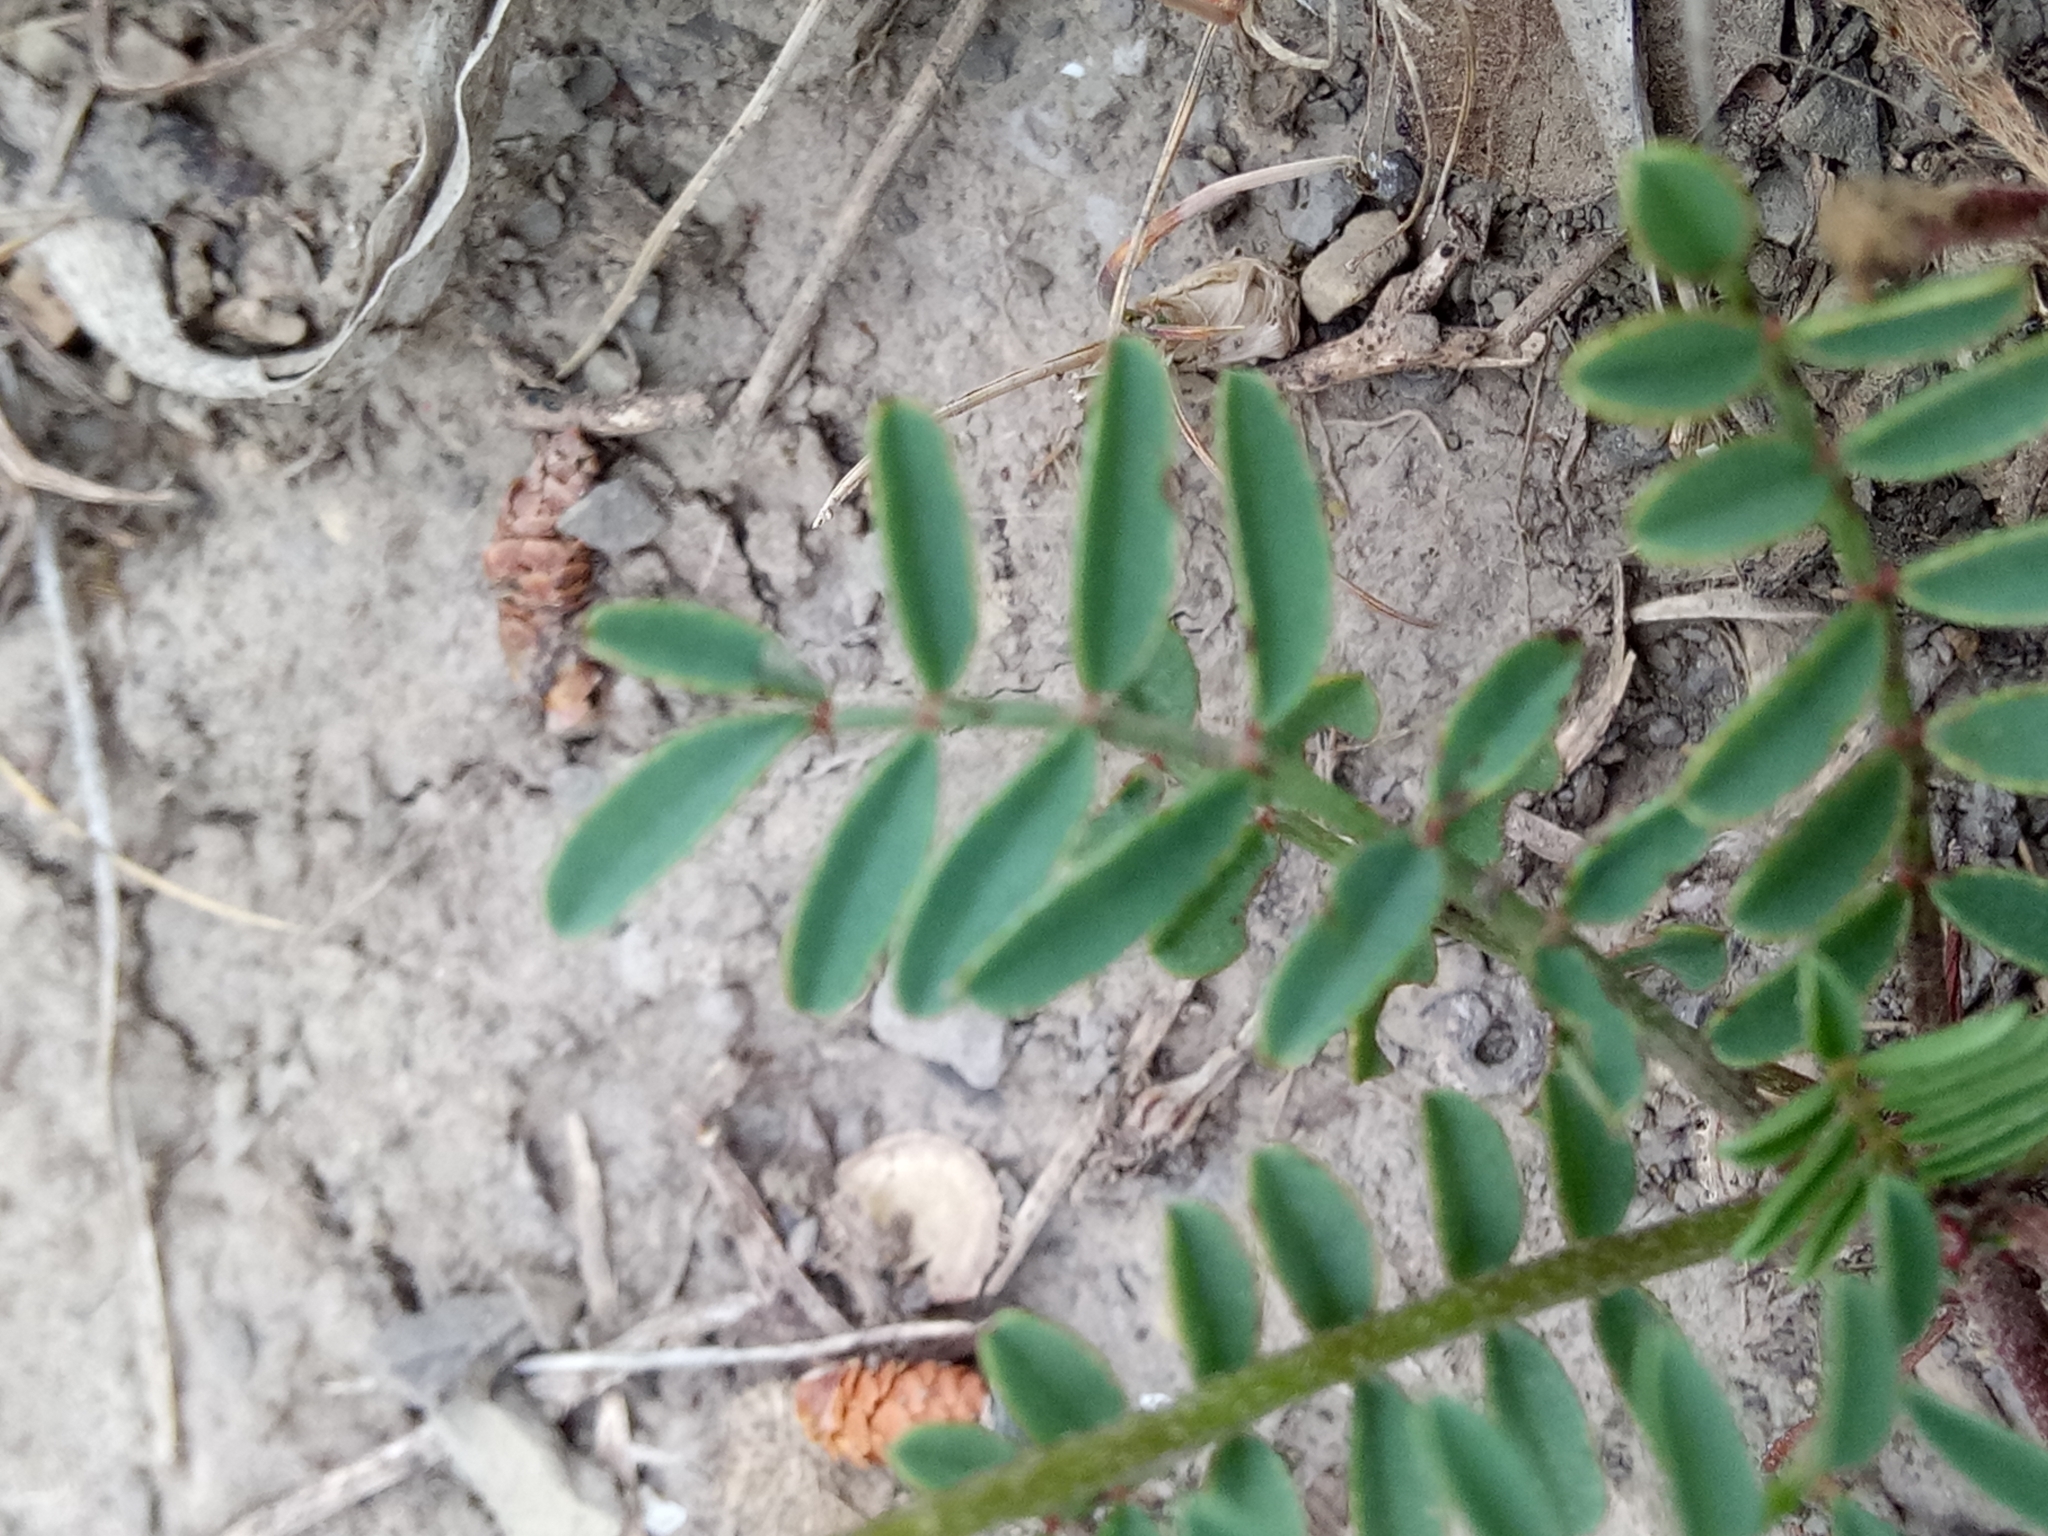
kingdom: Plantae
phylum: Tracheophyta
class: Magnoliopsida
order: Fabales
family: Fabaceae
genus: Sulla
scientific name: Sulla glomerata
